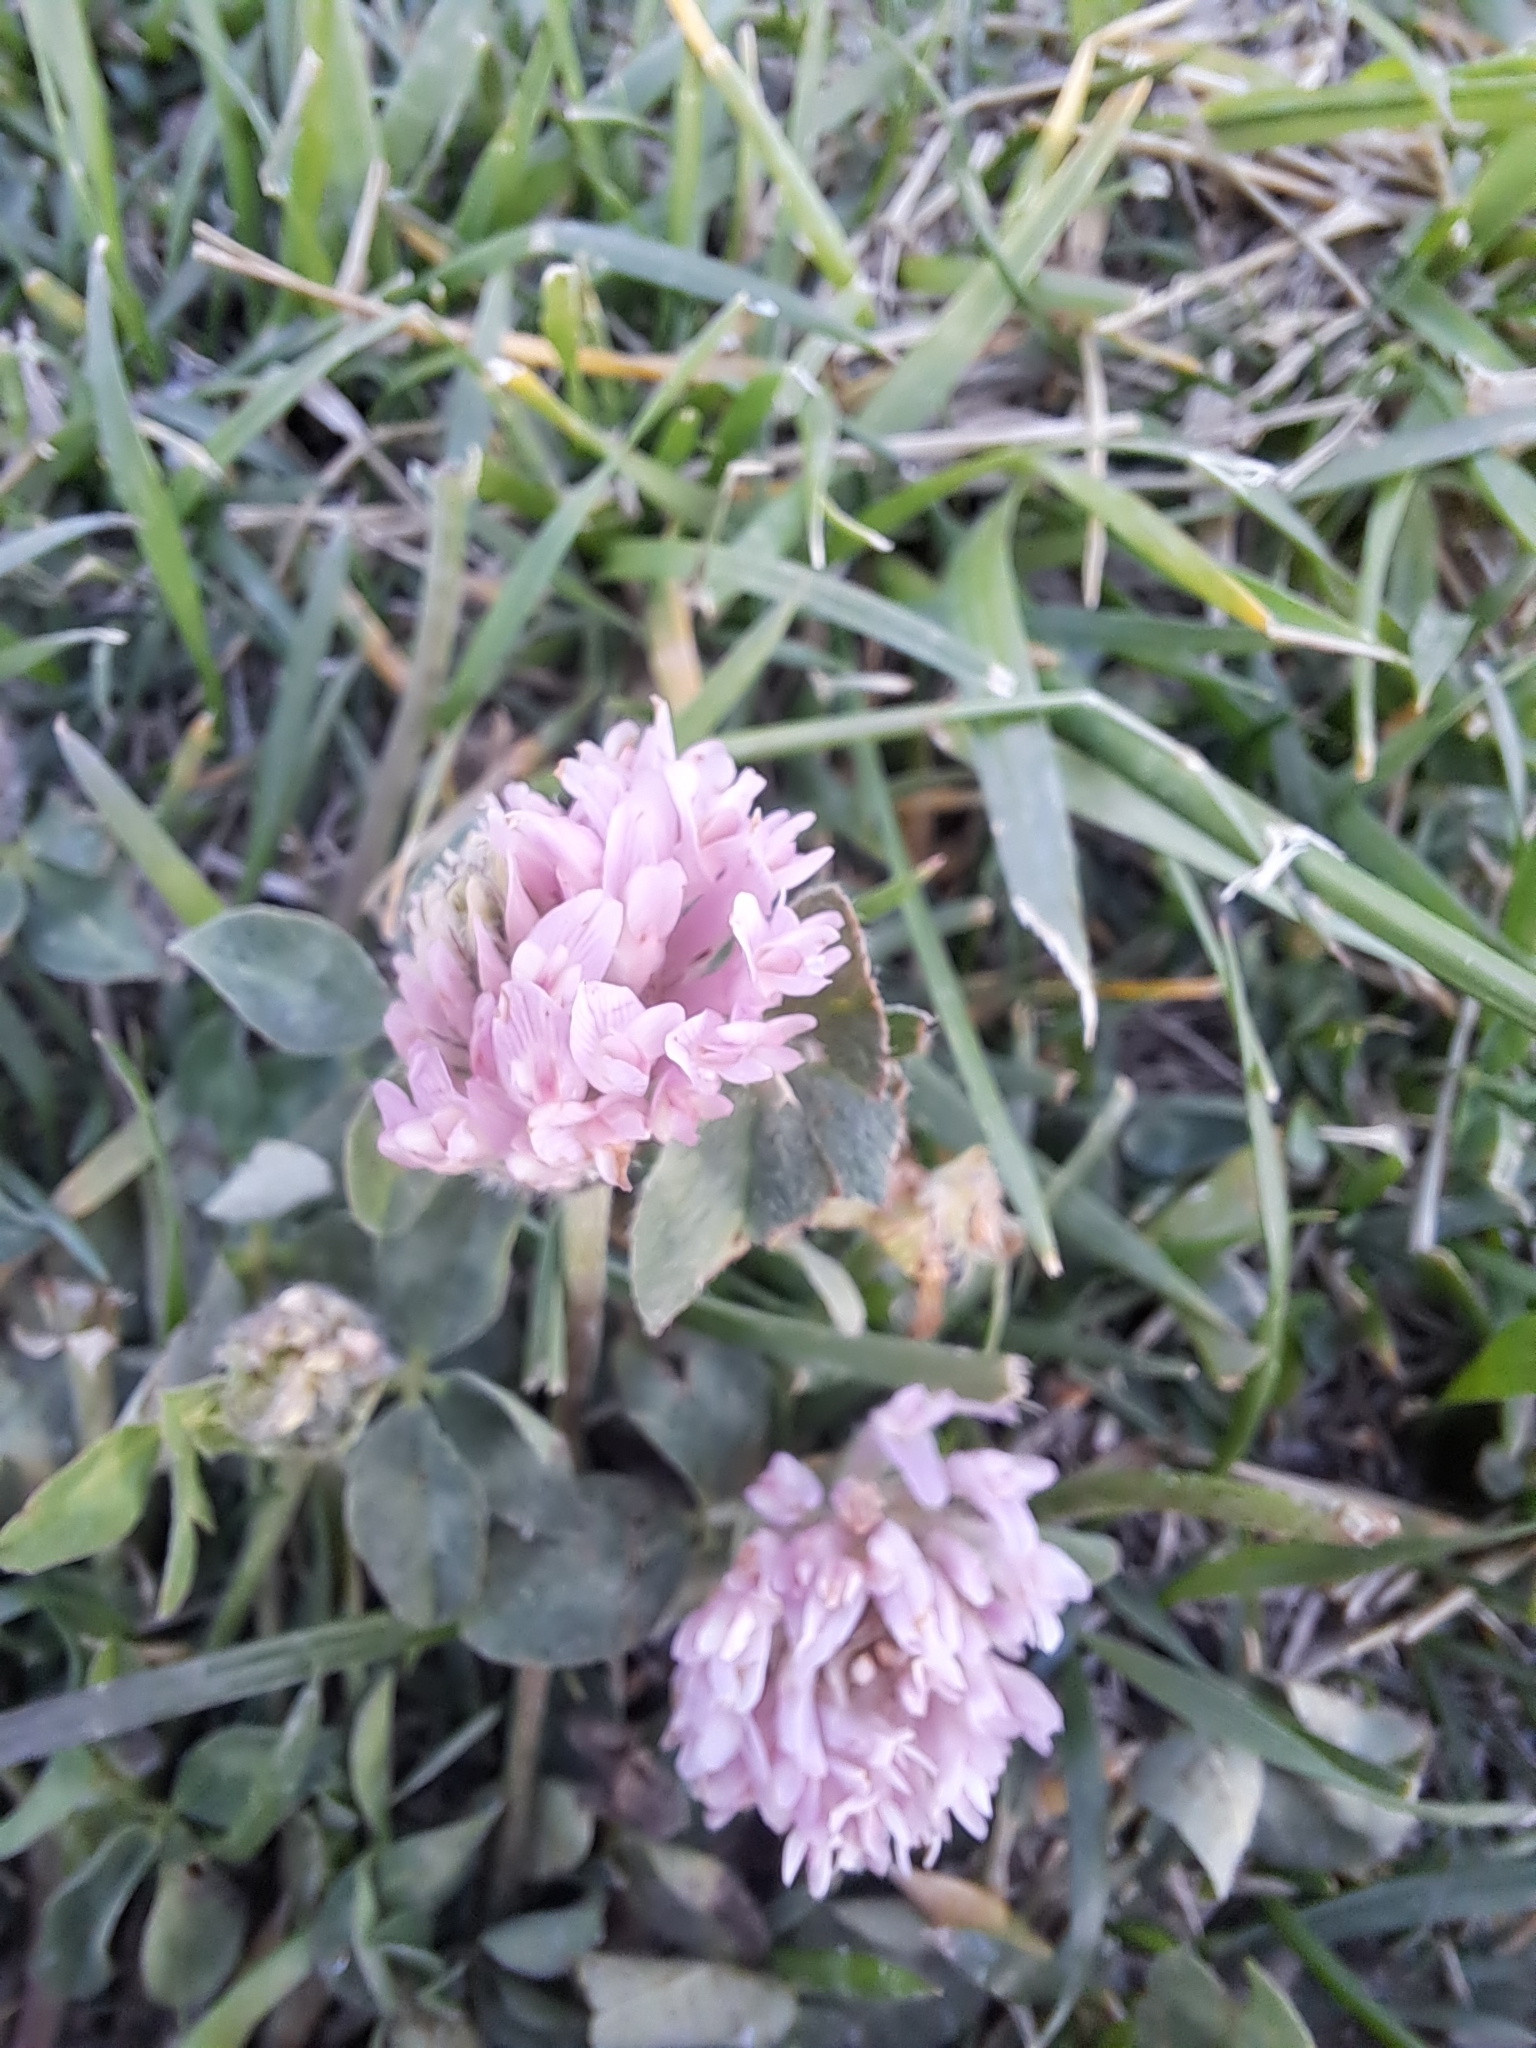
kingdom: Plantae
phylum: Tracheophyta
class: Magnoliopsida
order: Fabales
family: Fabaceae
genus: Trifolium
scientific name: Trifolium pratense
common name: Red clover
